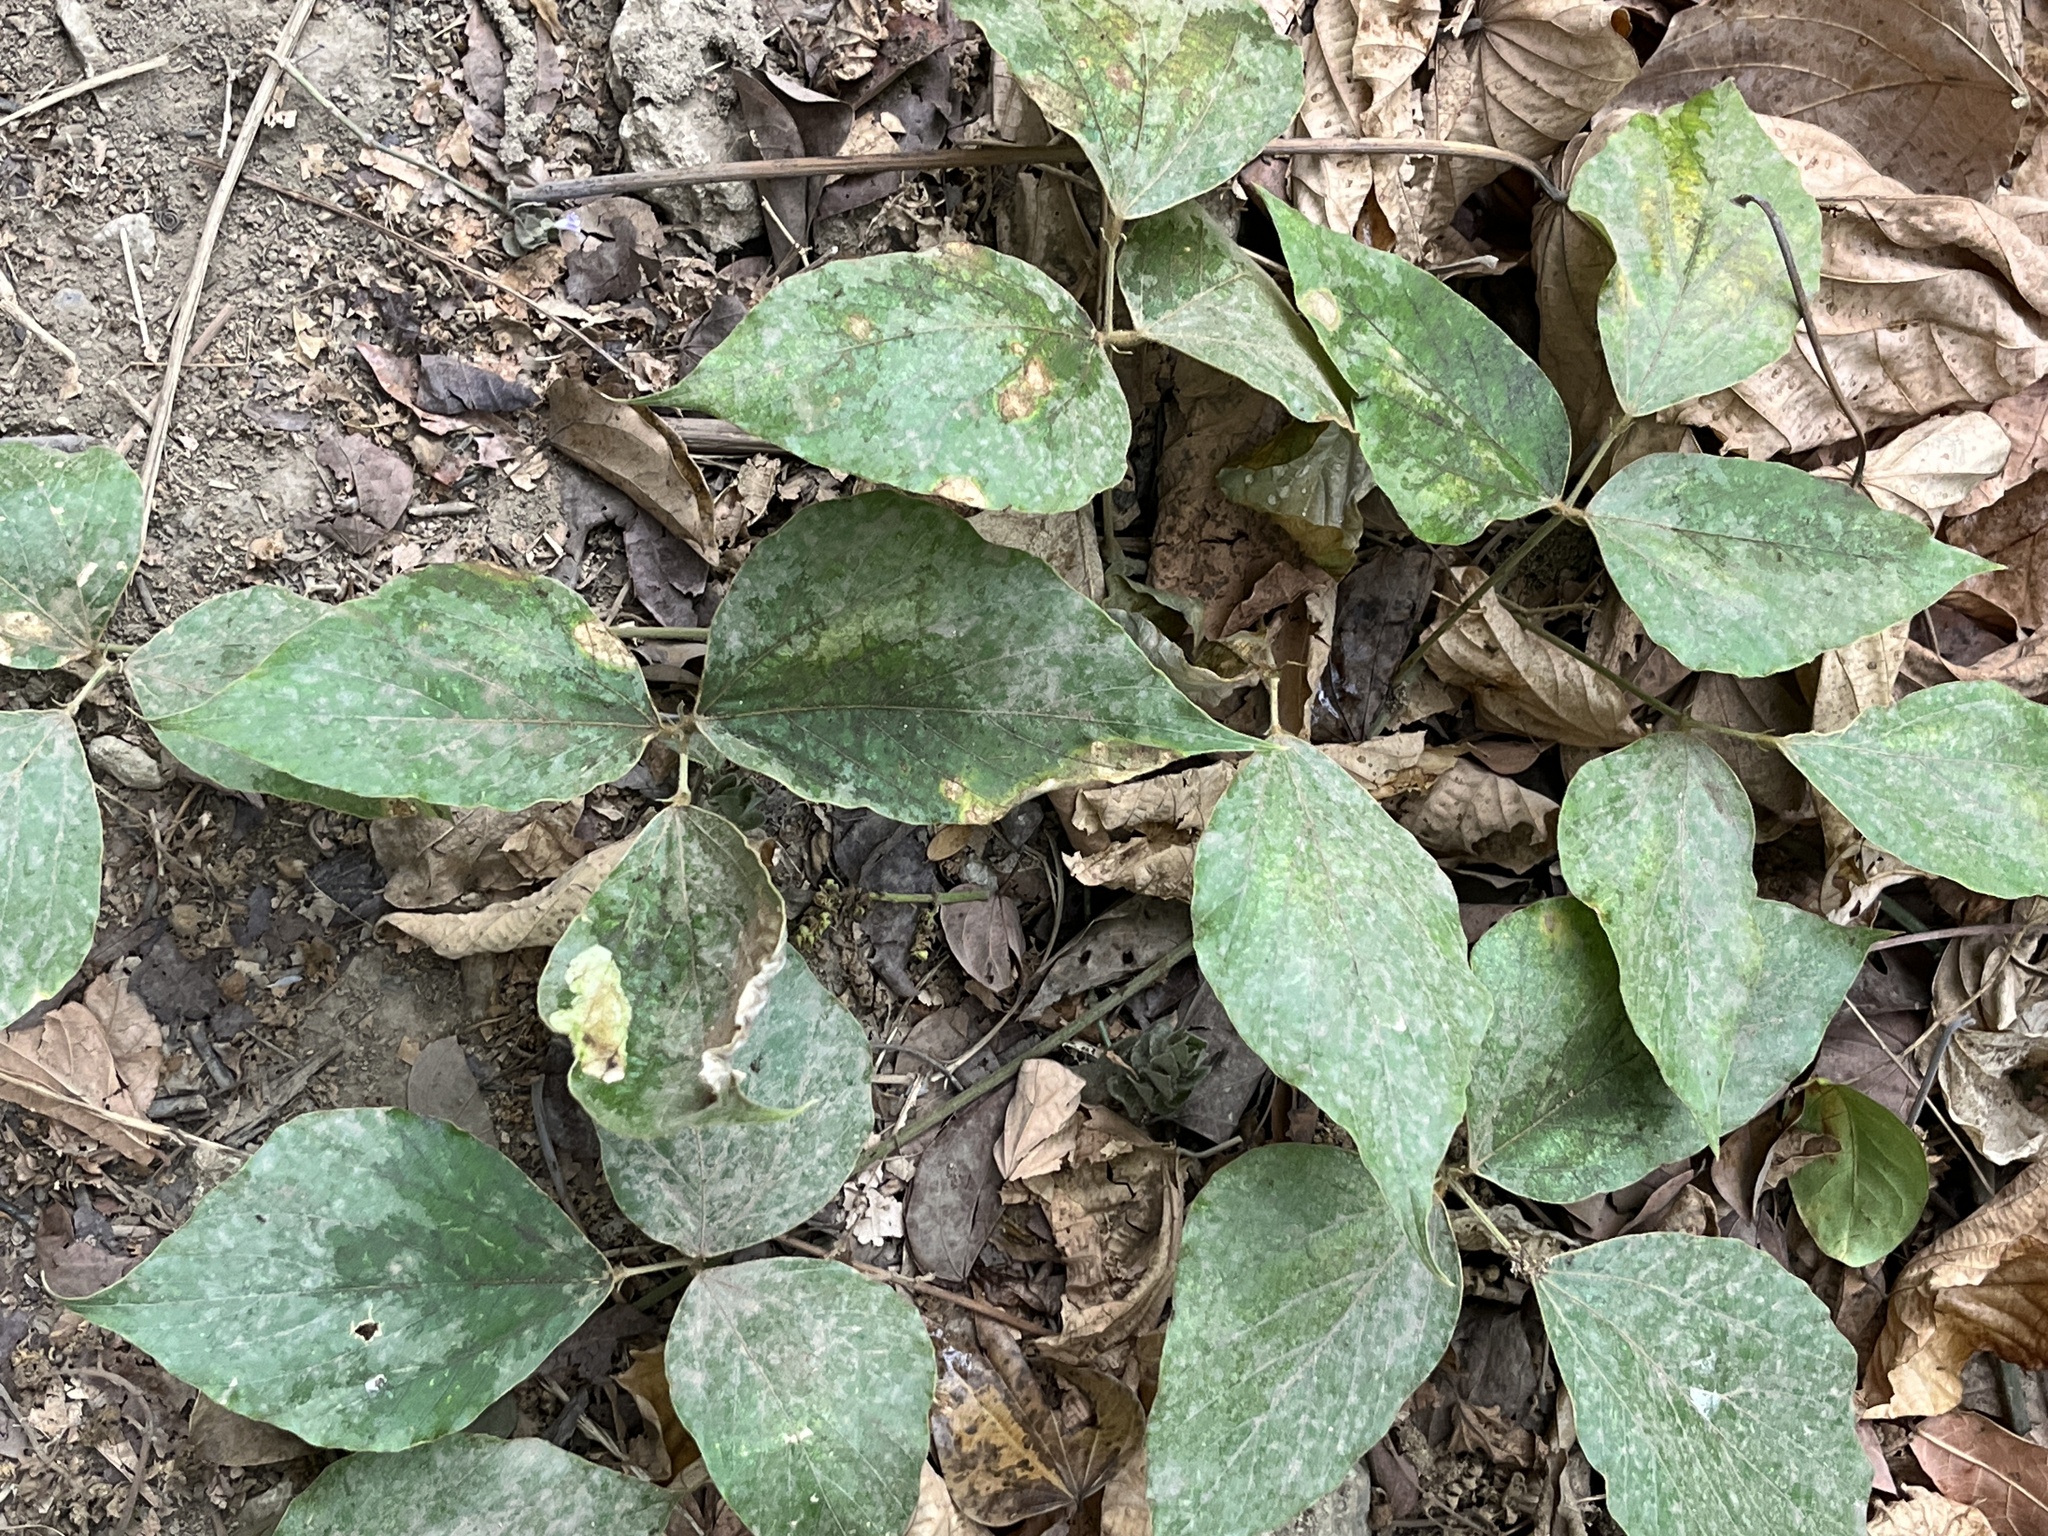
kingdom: Plantae
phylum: Tracheophyta
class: Magnoliopsida
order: Fabales
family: Fabaceae
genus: Pueraria
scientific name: Pueraria montana
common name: Kudzu
